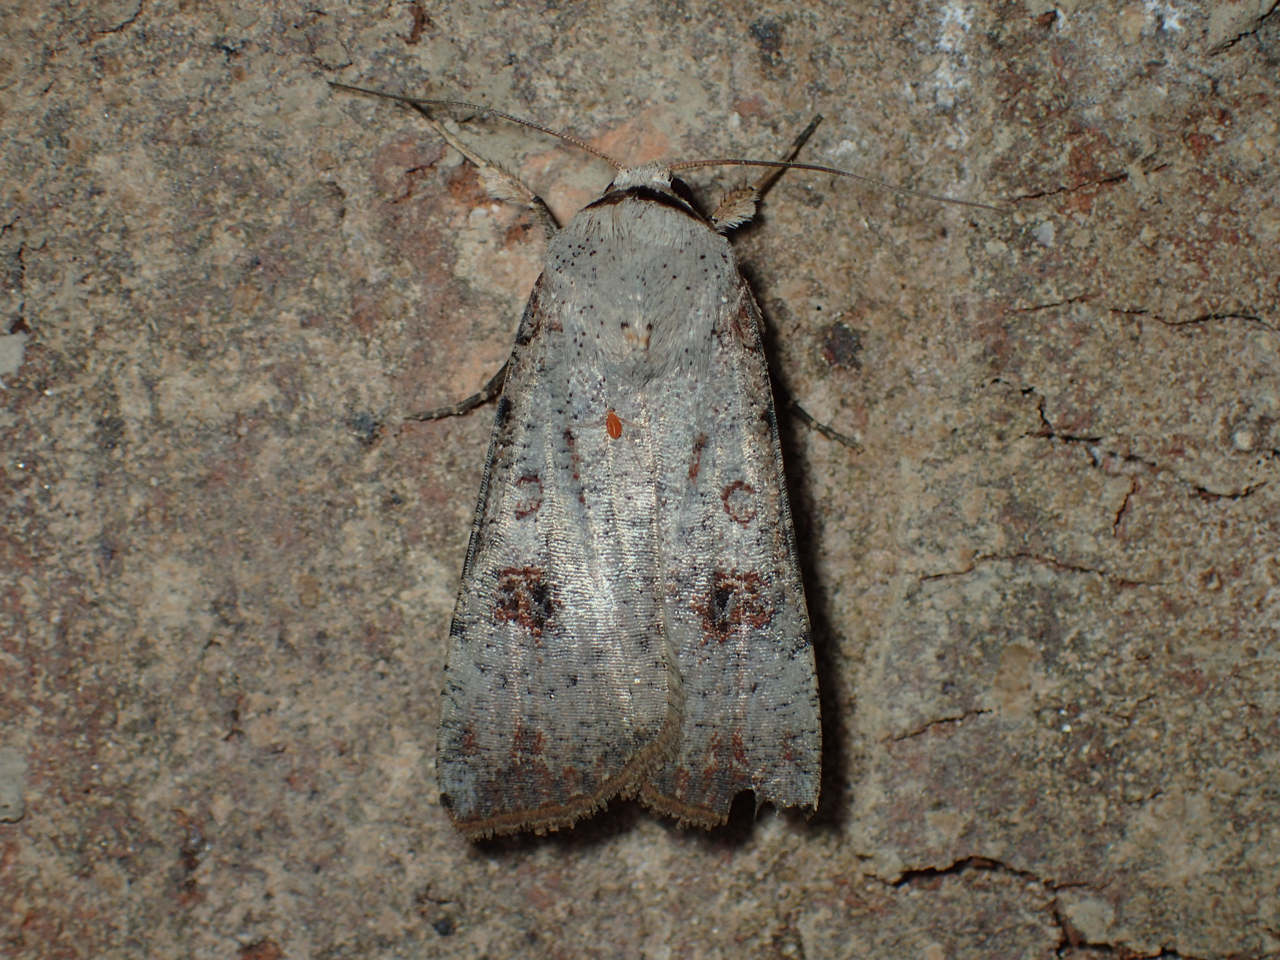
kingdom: Animalia
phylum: Arthropoda
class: Insecta
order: Lepidoptera
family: Noctuidae
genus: Anicla
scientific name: Anicla infecta
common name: Green cutworm
